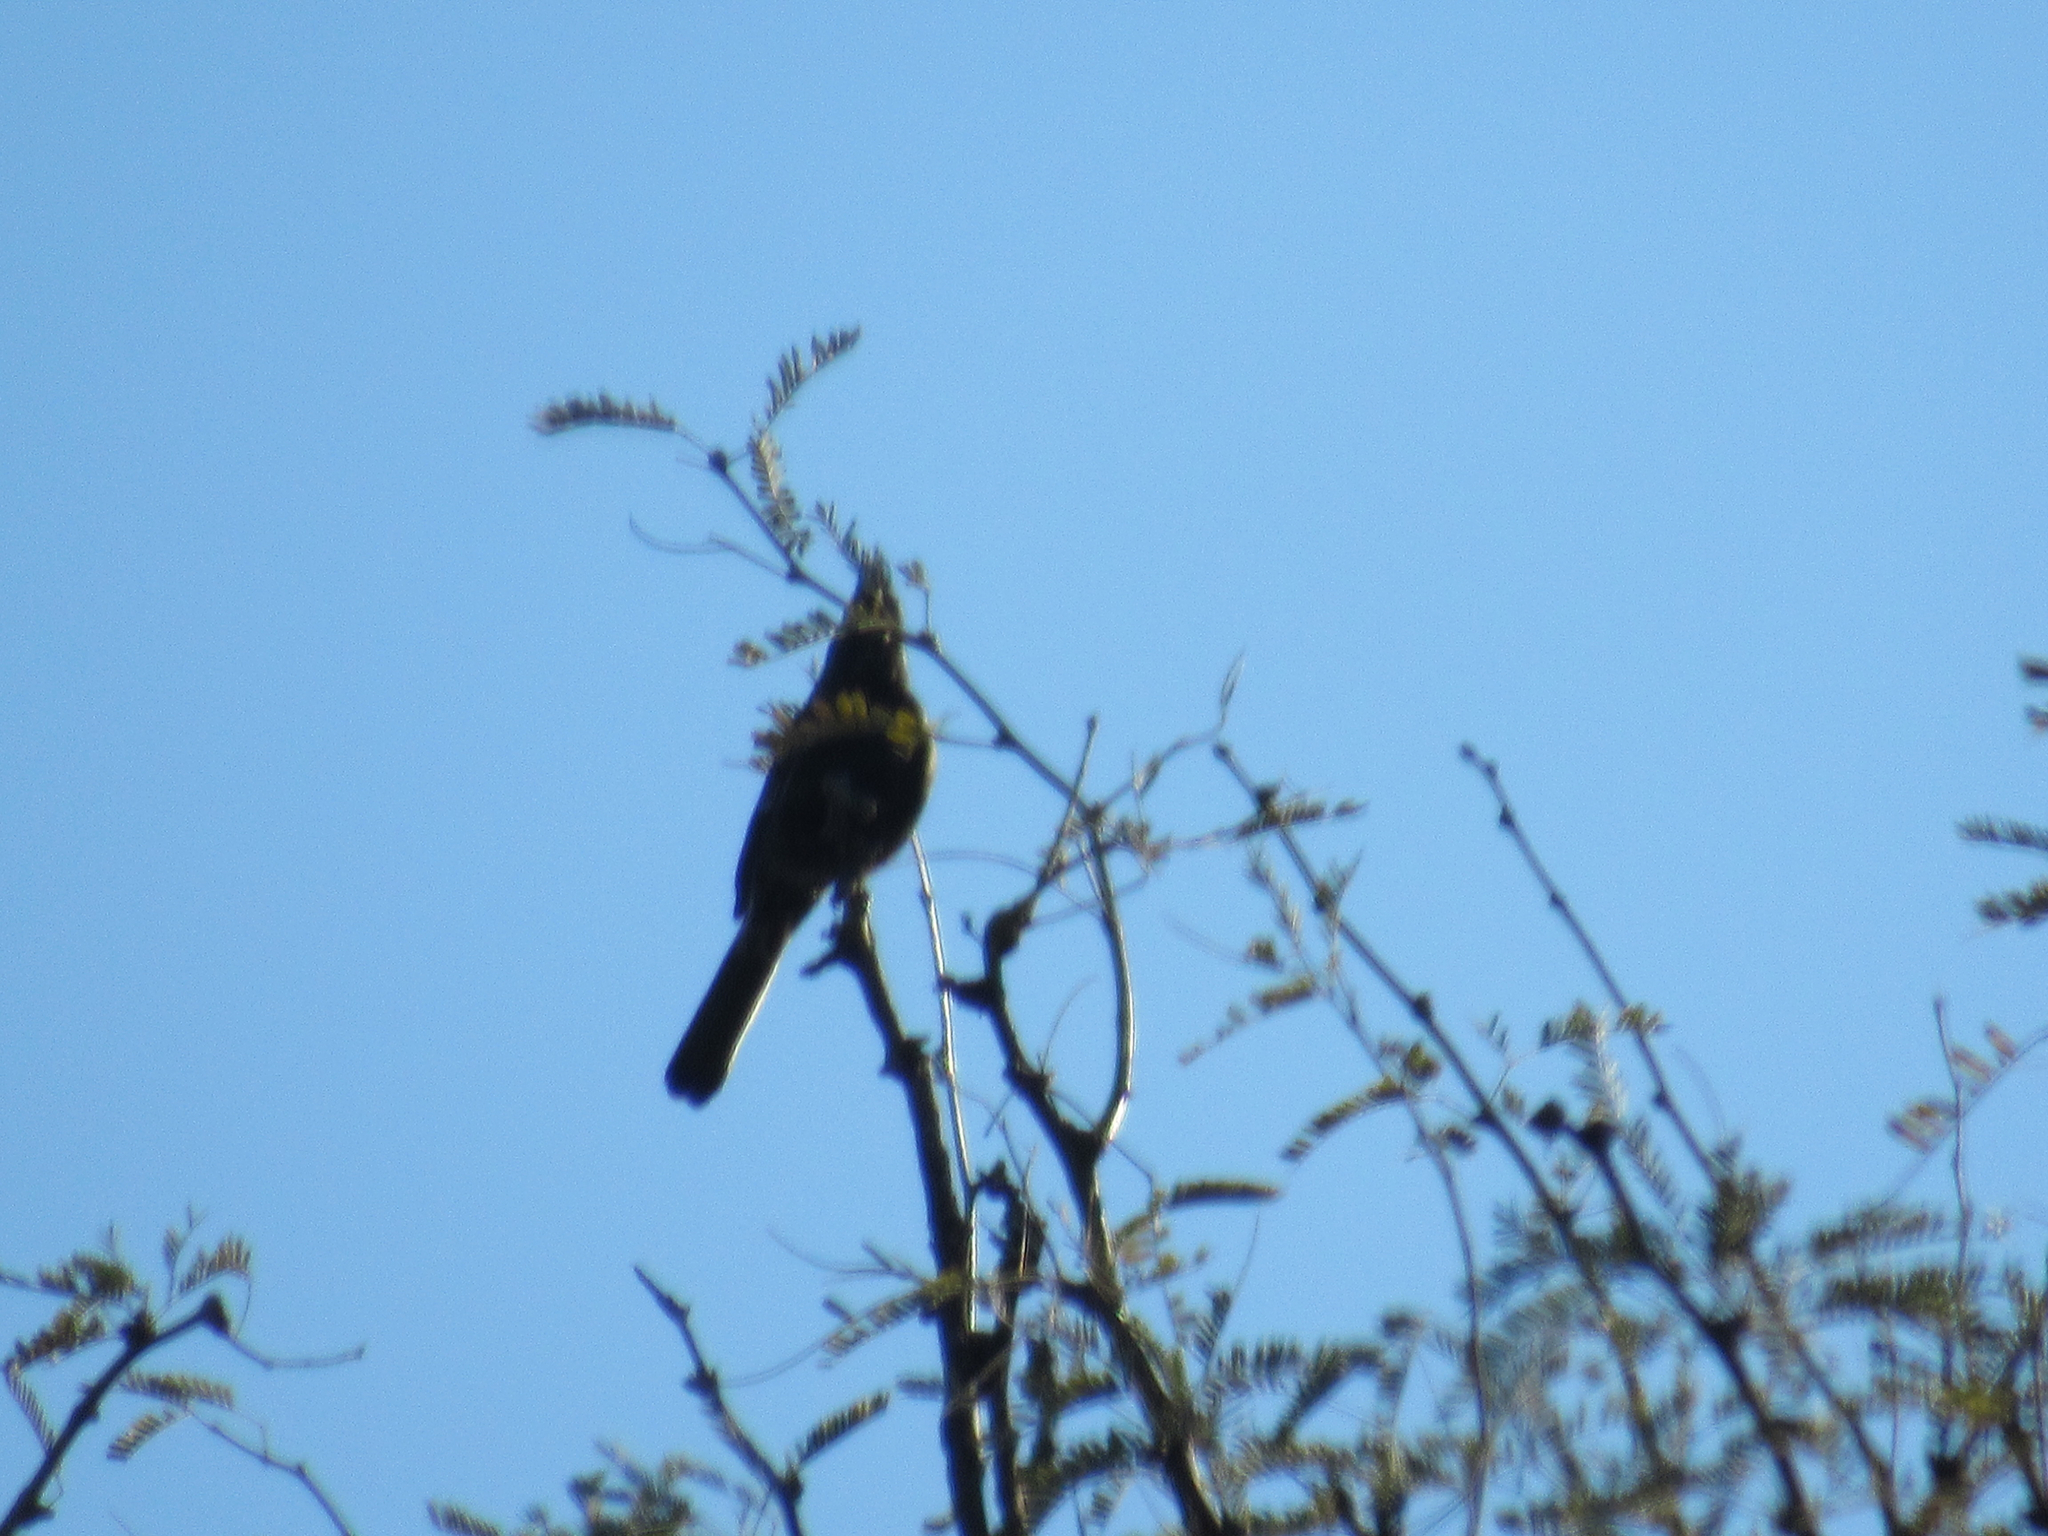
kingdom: Animalia
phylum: Chordata
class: Aves
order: Passeriformes
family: Ptilogonatidae
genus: Phainopepla
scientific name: Phainopepla nitens
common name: Phainopepla
